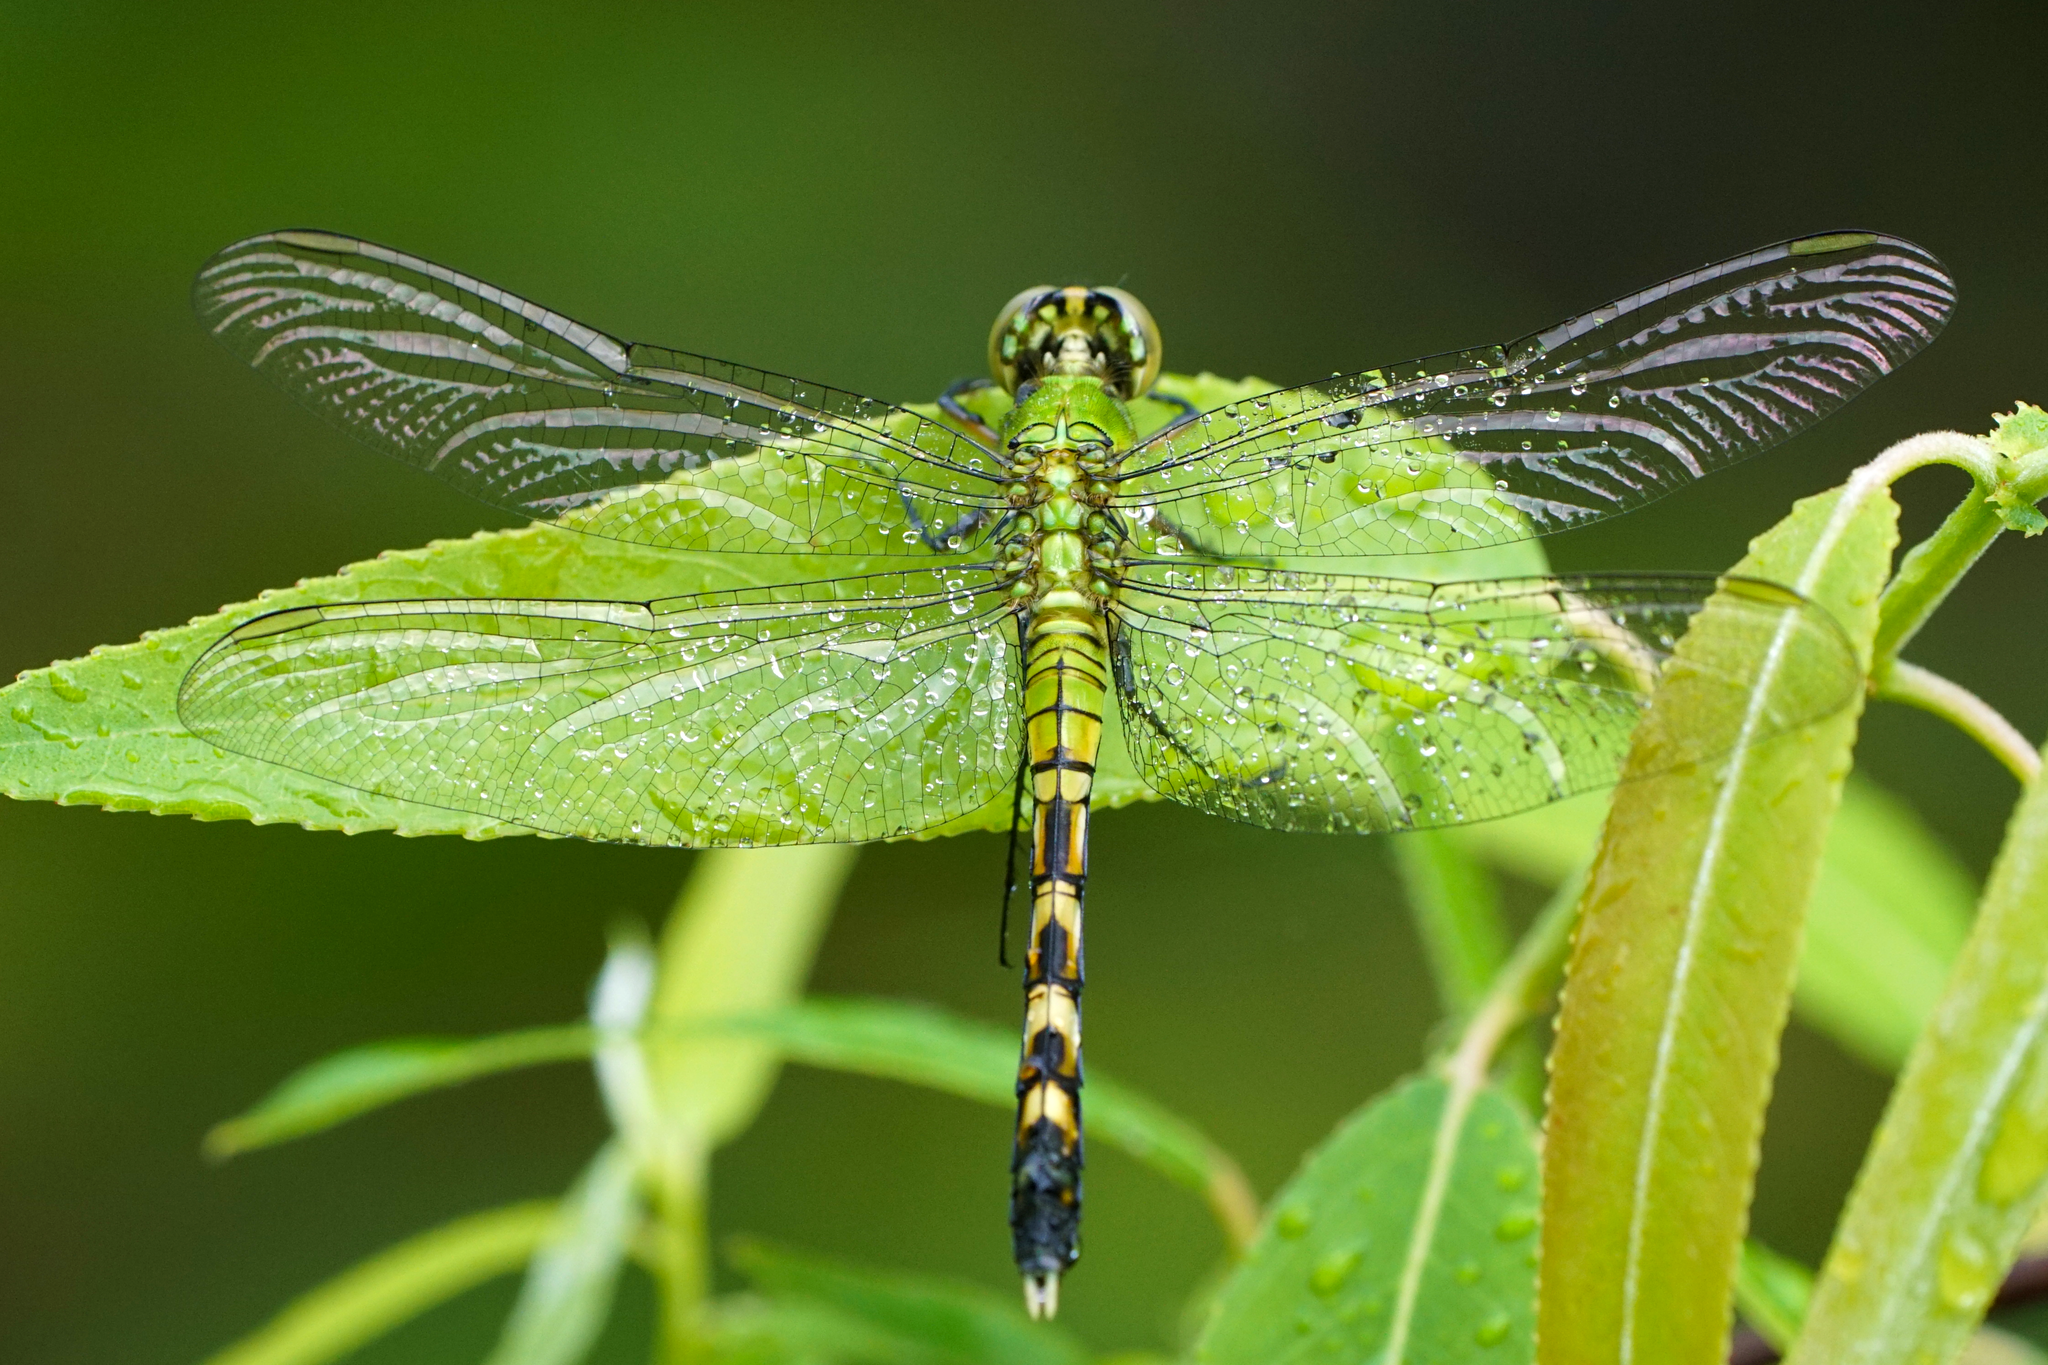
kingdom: Animalia
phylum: Arthropoda
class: Insecta
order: Odonata
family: Libellulidae
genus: Erythemis
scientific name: Erythemis simplicicollis
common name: Eastern pondhawk
